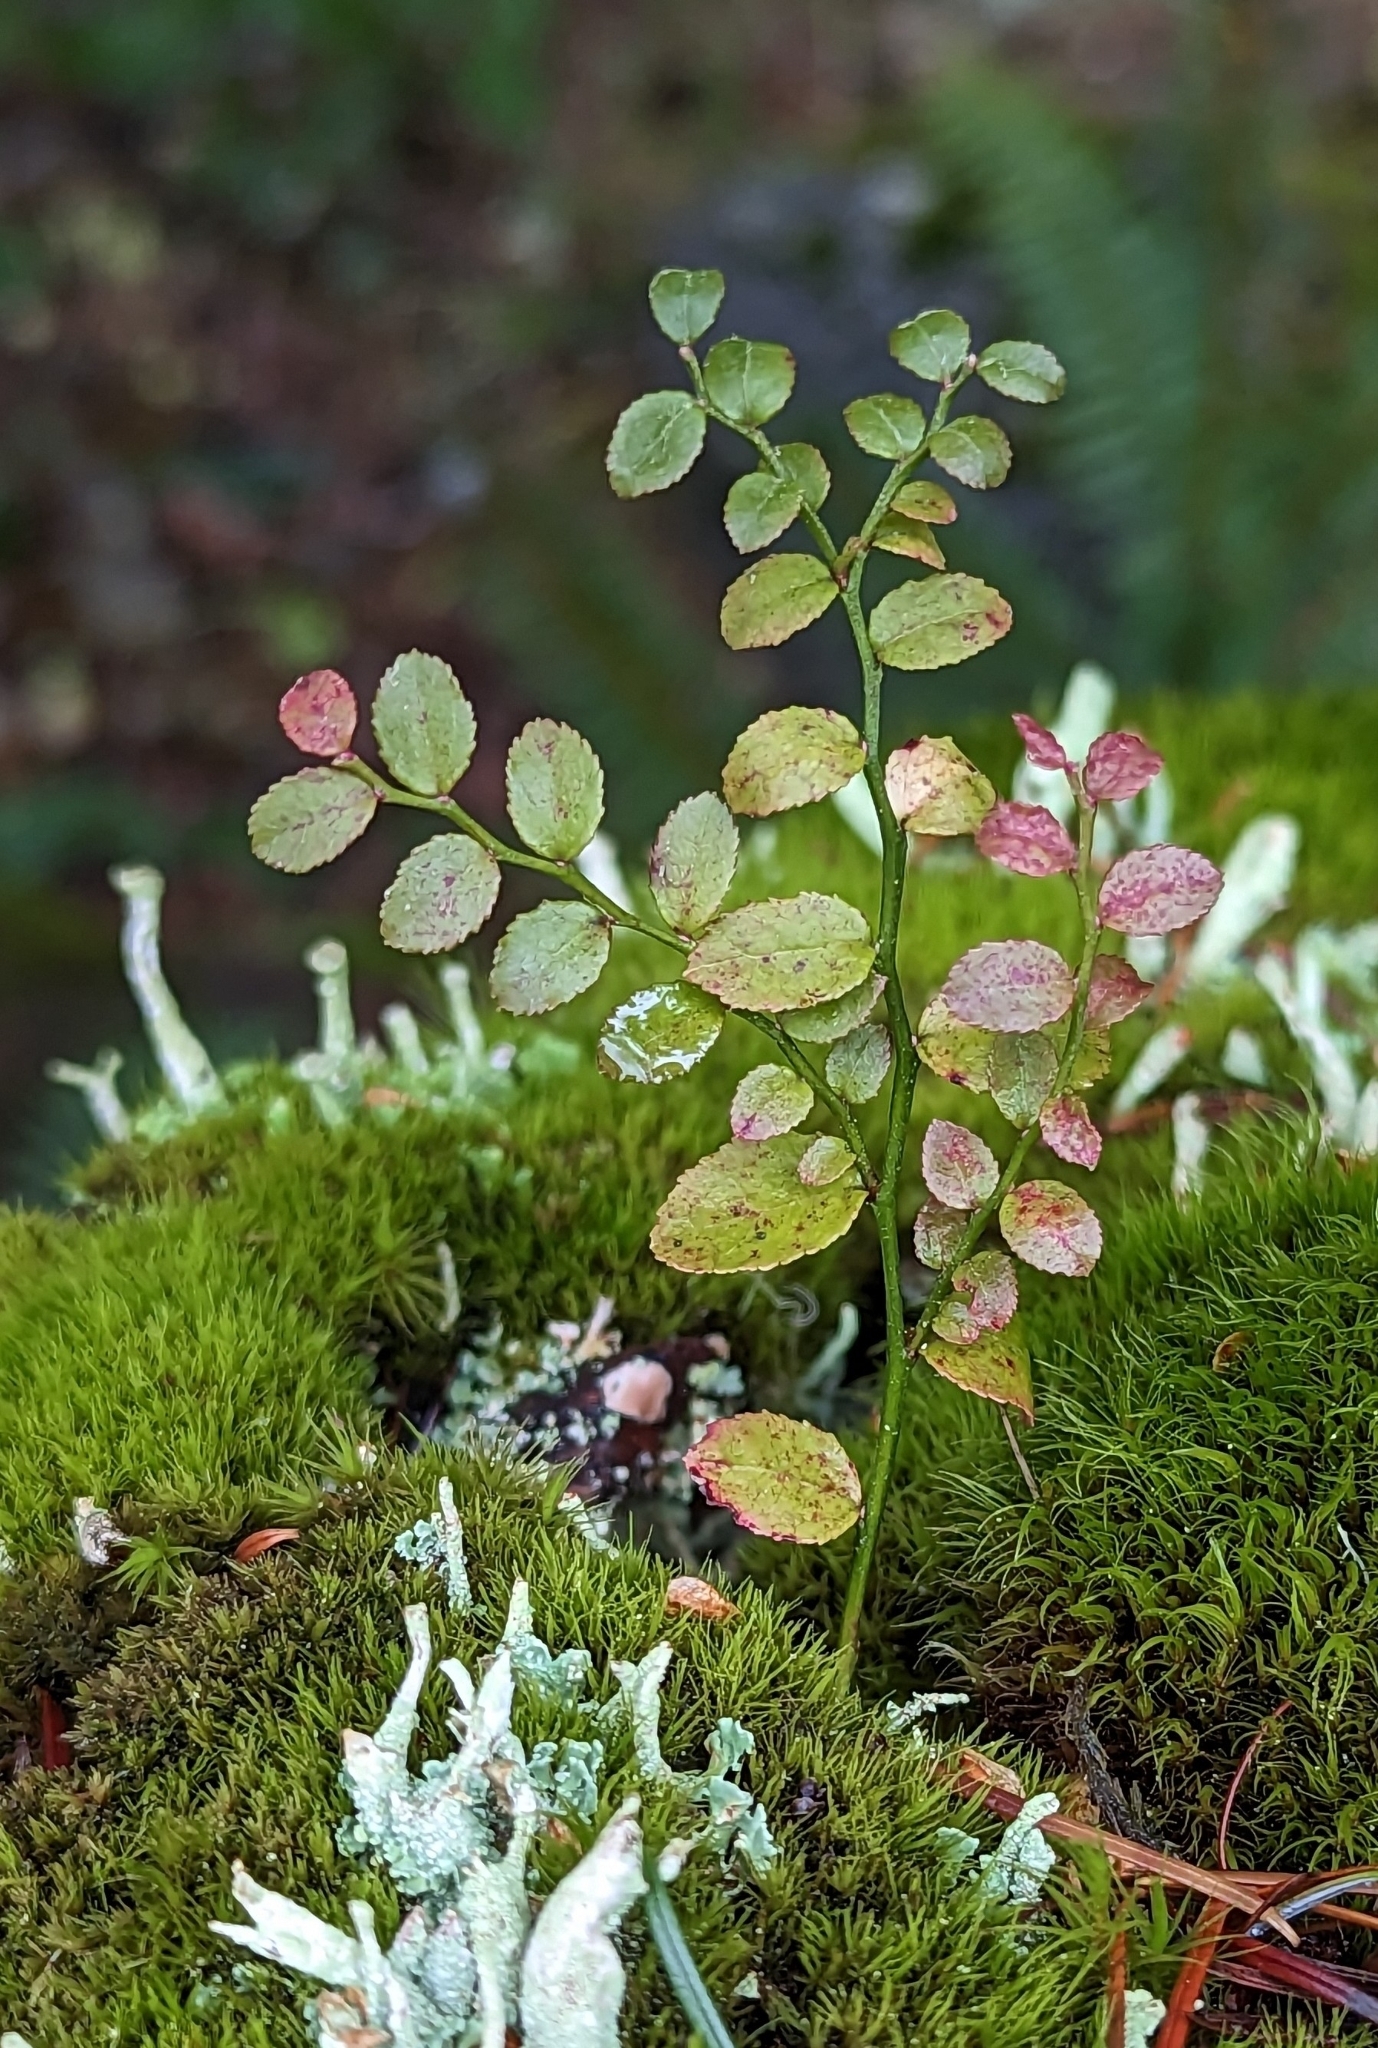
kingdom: Plantae
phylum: Tracheophyta
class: Magnoliopsida
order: Ericales
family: Ericaceae
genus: Vaccinium
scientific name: Vaccinium parvifolium
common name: Red-huckleberry
